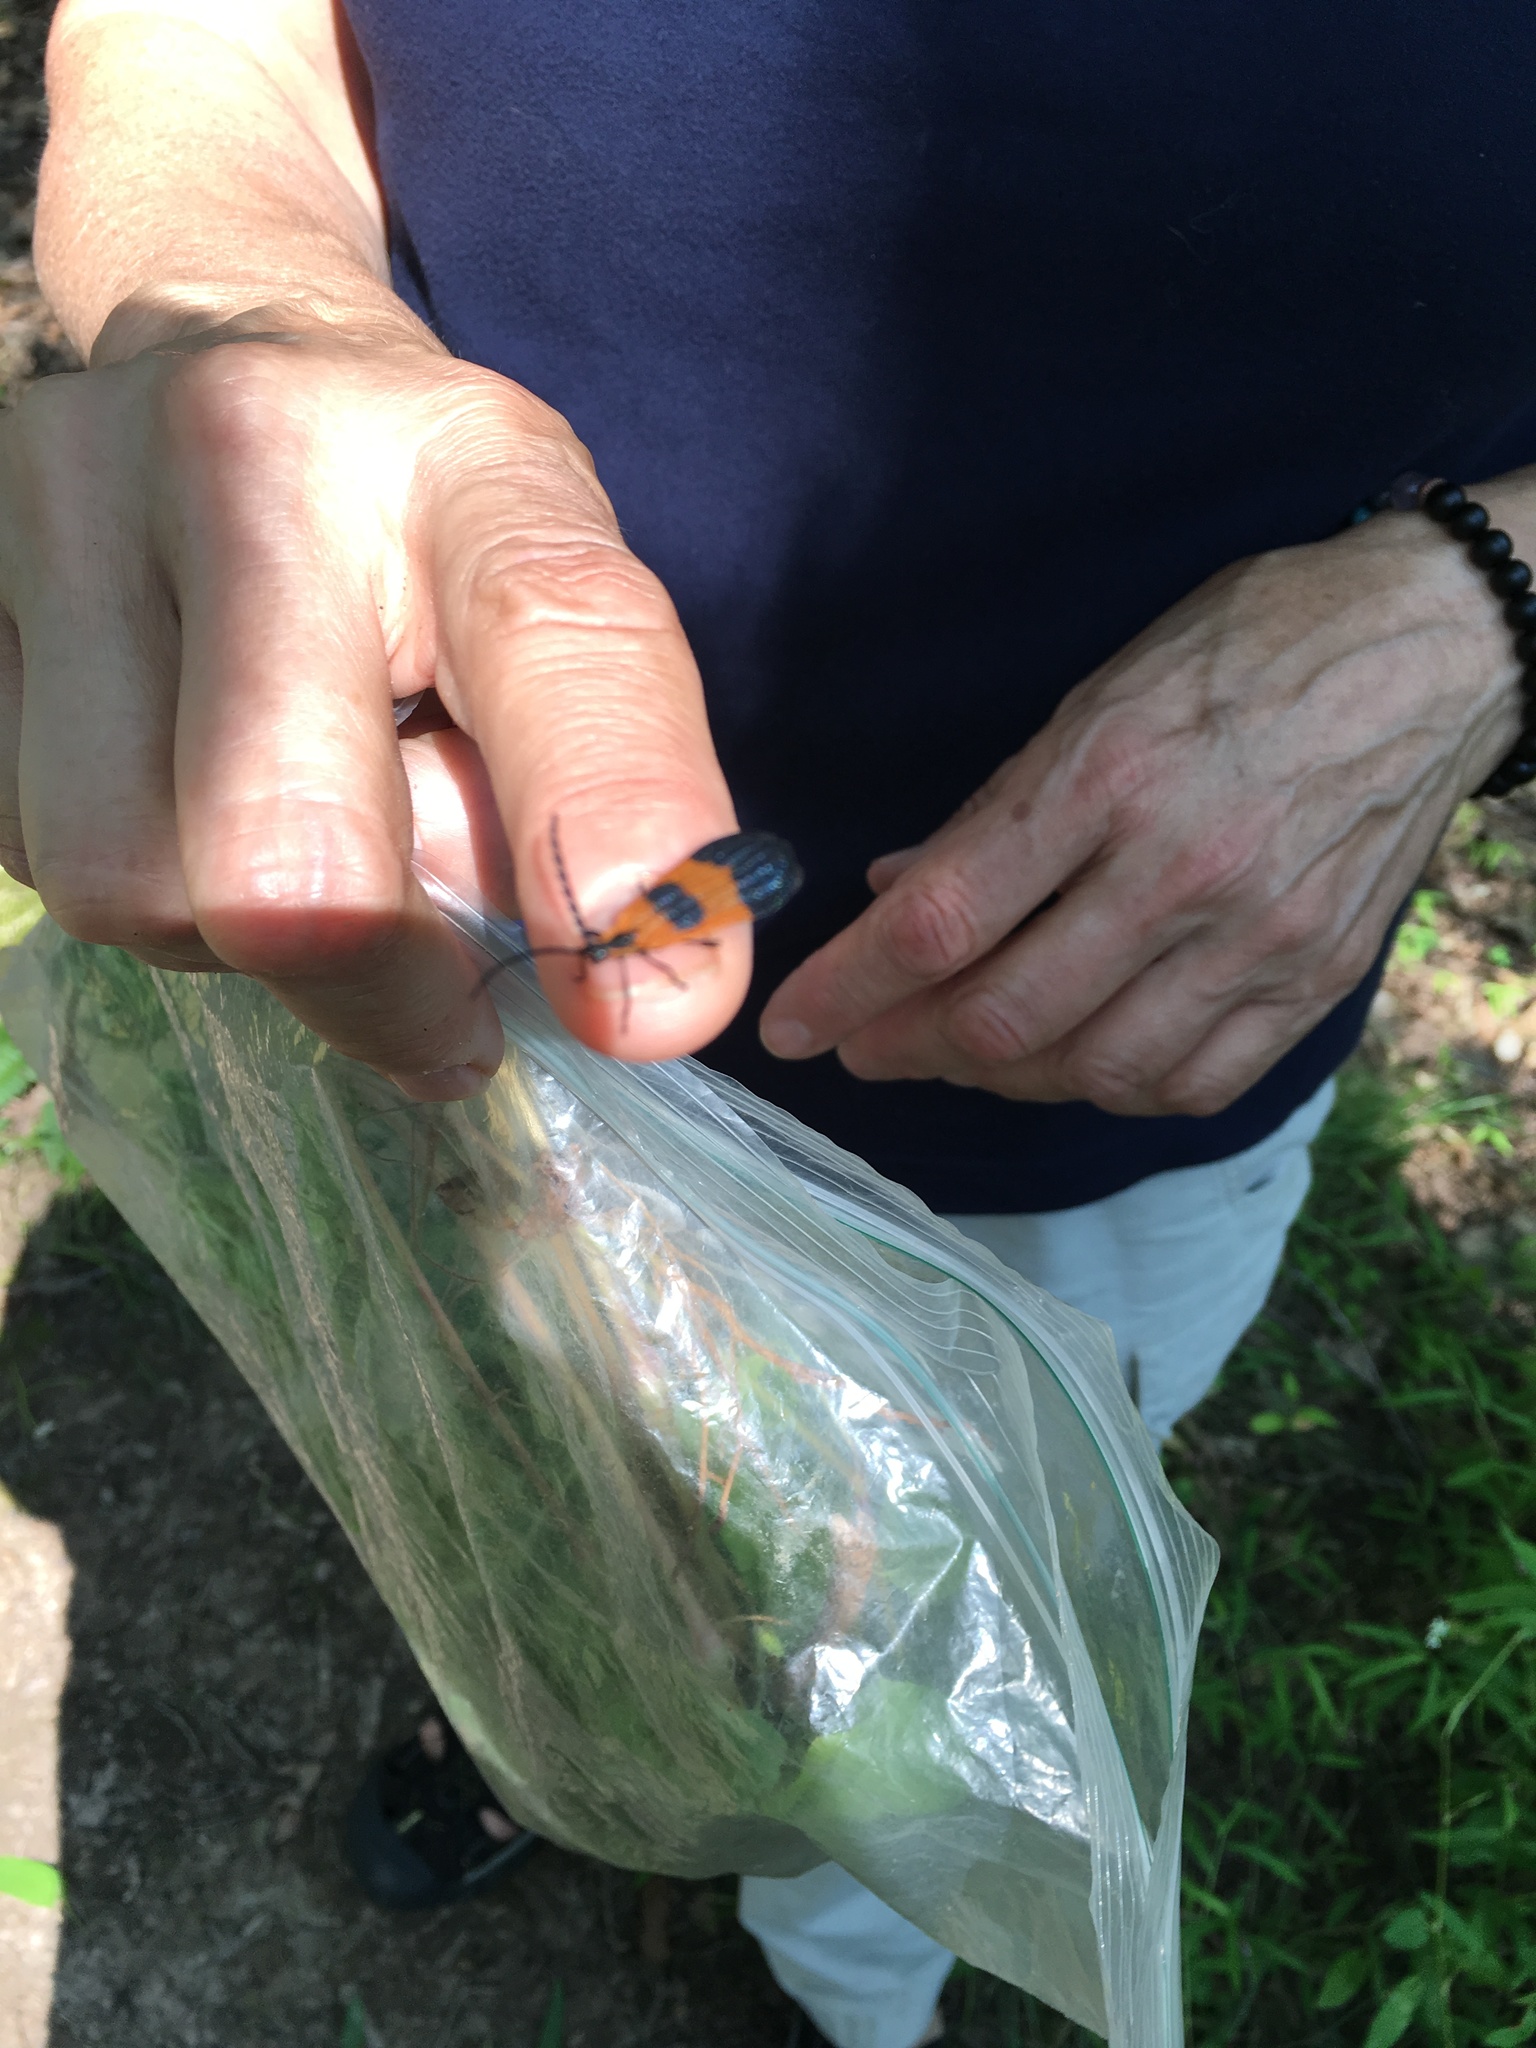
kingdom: Animalia
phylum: Arthropoda
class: Insecta
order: Coleoptera
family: Lycidae
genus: Calopteron
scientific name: Calopteron reticulatum
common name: Banded net-winged beetle
